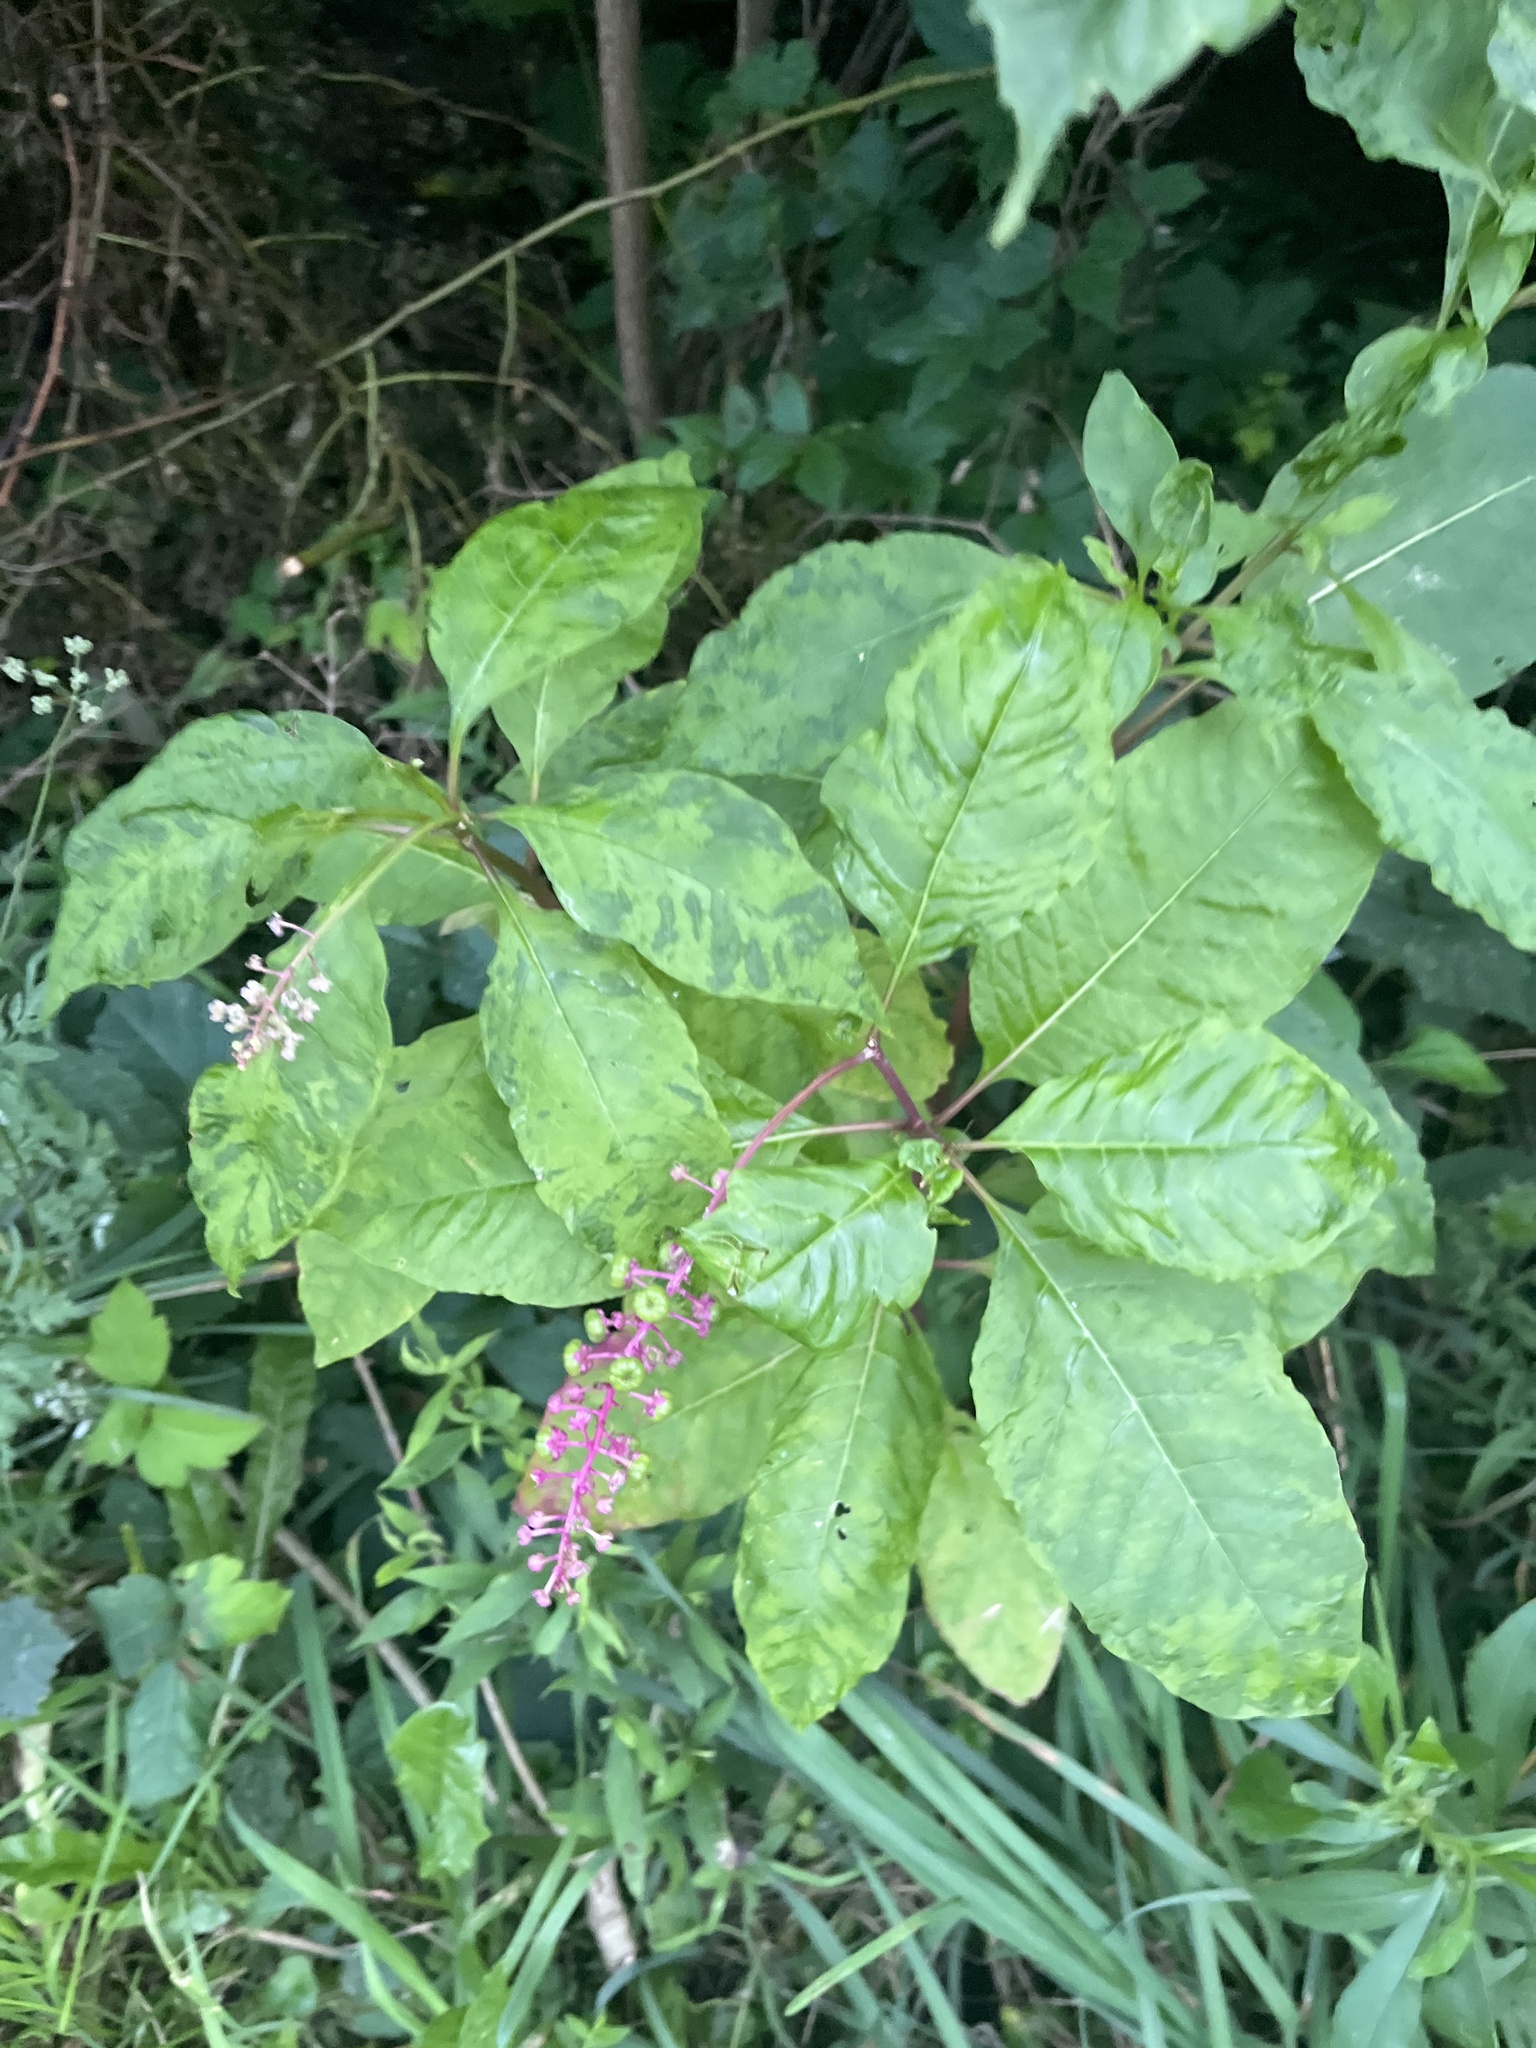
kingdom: Plantae
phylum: Tracheophyta
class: Magnoliopsida
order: Caryophyllales
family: Phytolaccaceae
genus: Phytolacca
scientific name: Phytolacca americana
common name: American pokeweed
